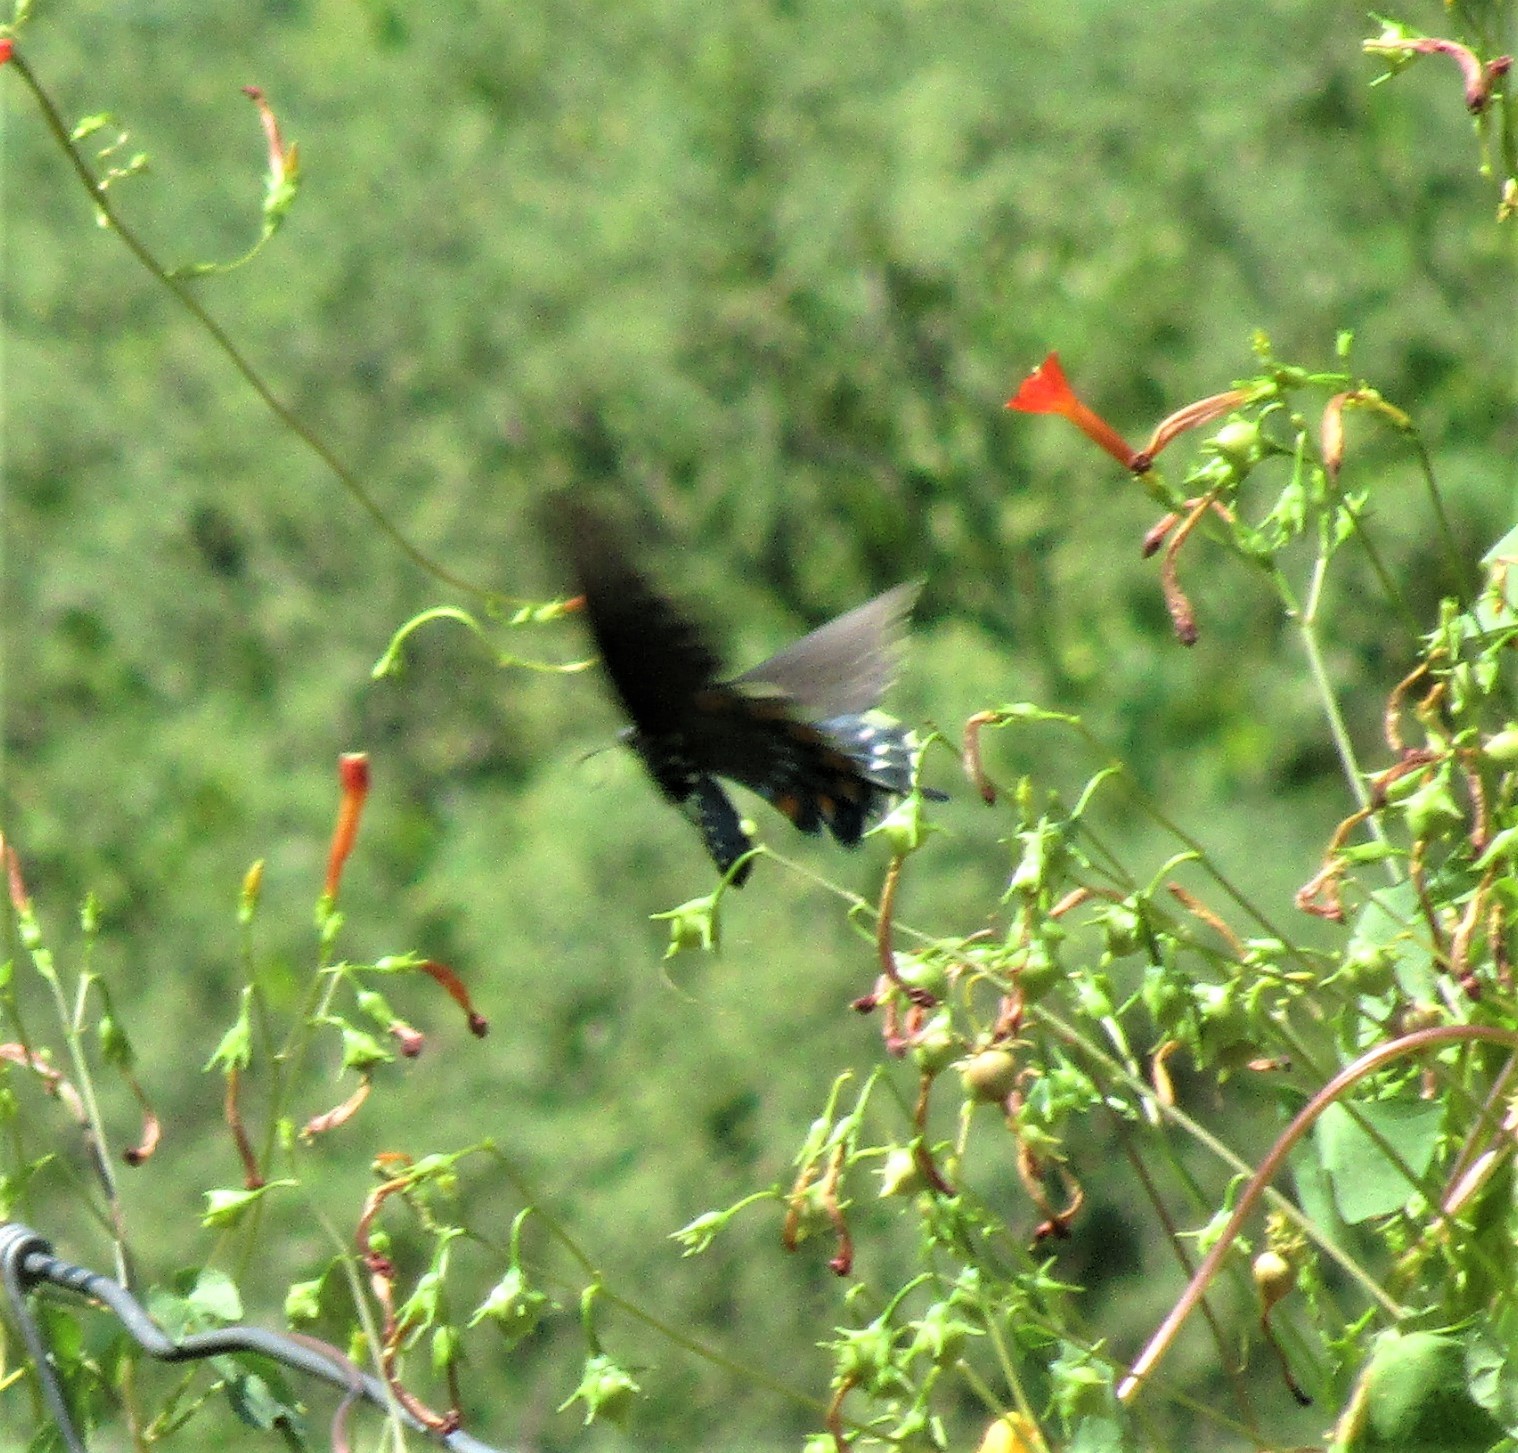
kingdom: Animalia
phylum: Arthropoda
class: Insecta
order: Lepidoptera
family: Papilionidae
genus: Battus
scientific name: Battus philenor
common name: Pipevine swallowtail
